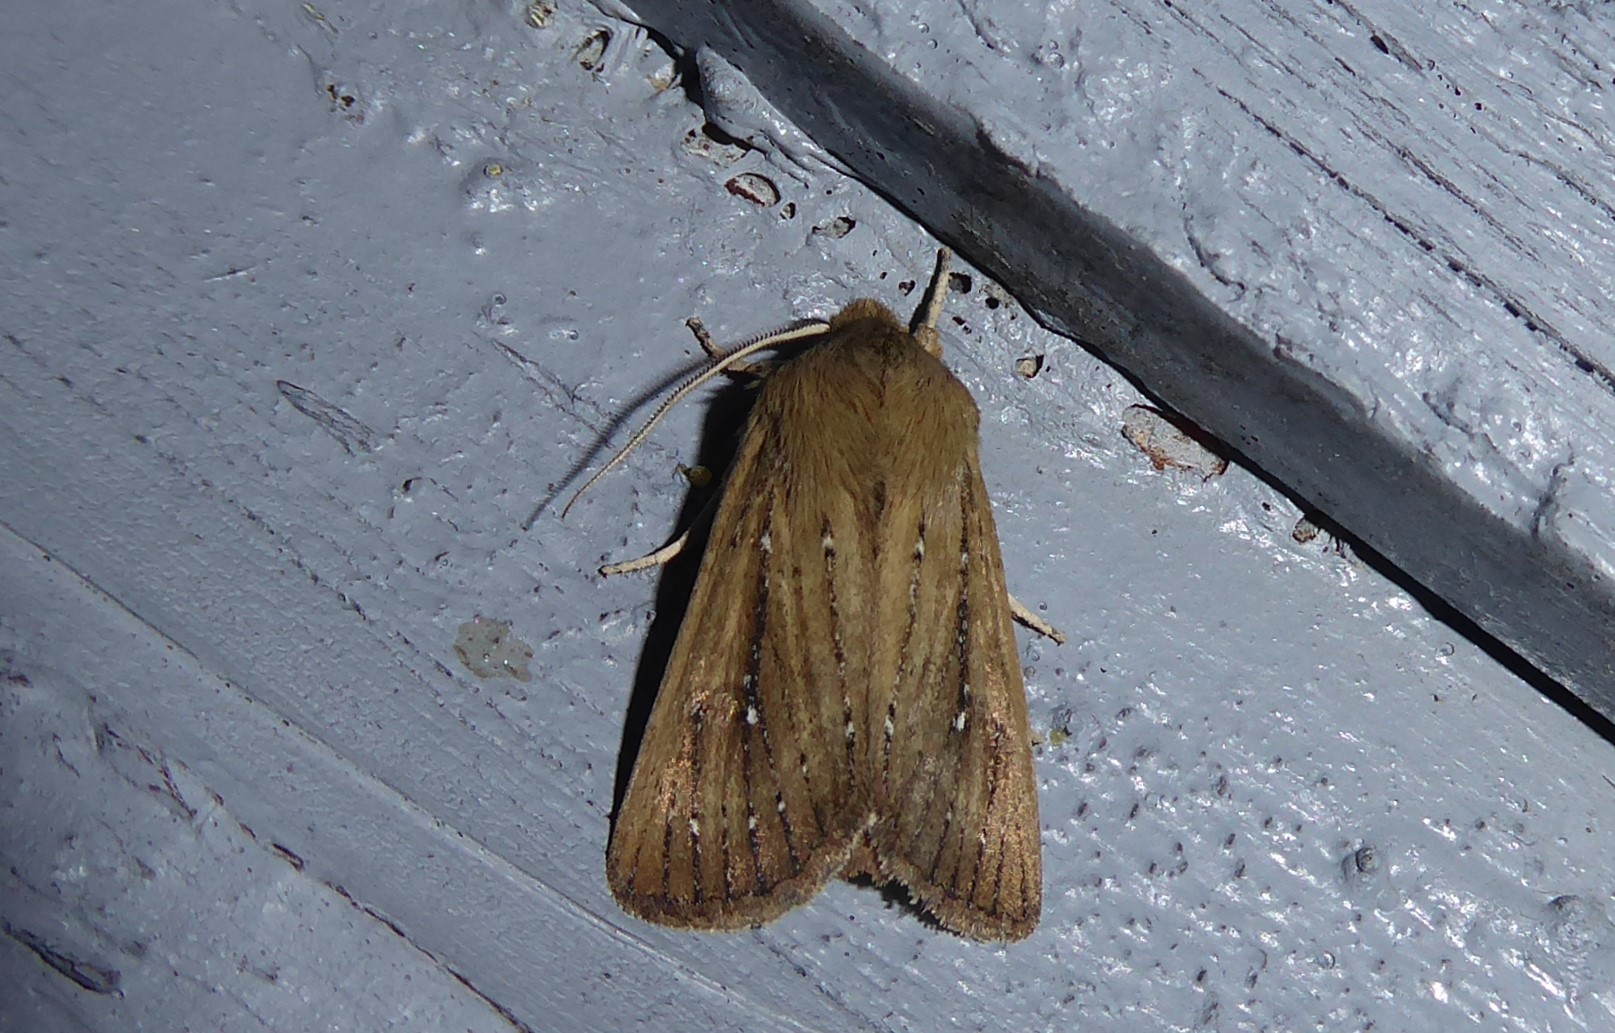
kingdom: Animalia
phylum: Arthropoda
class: Insecta
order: Lepidoptera
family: Noctuidae
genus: Ichneutica
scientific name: Ichneutica
